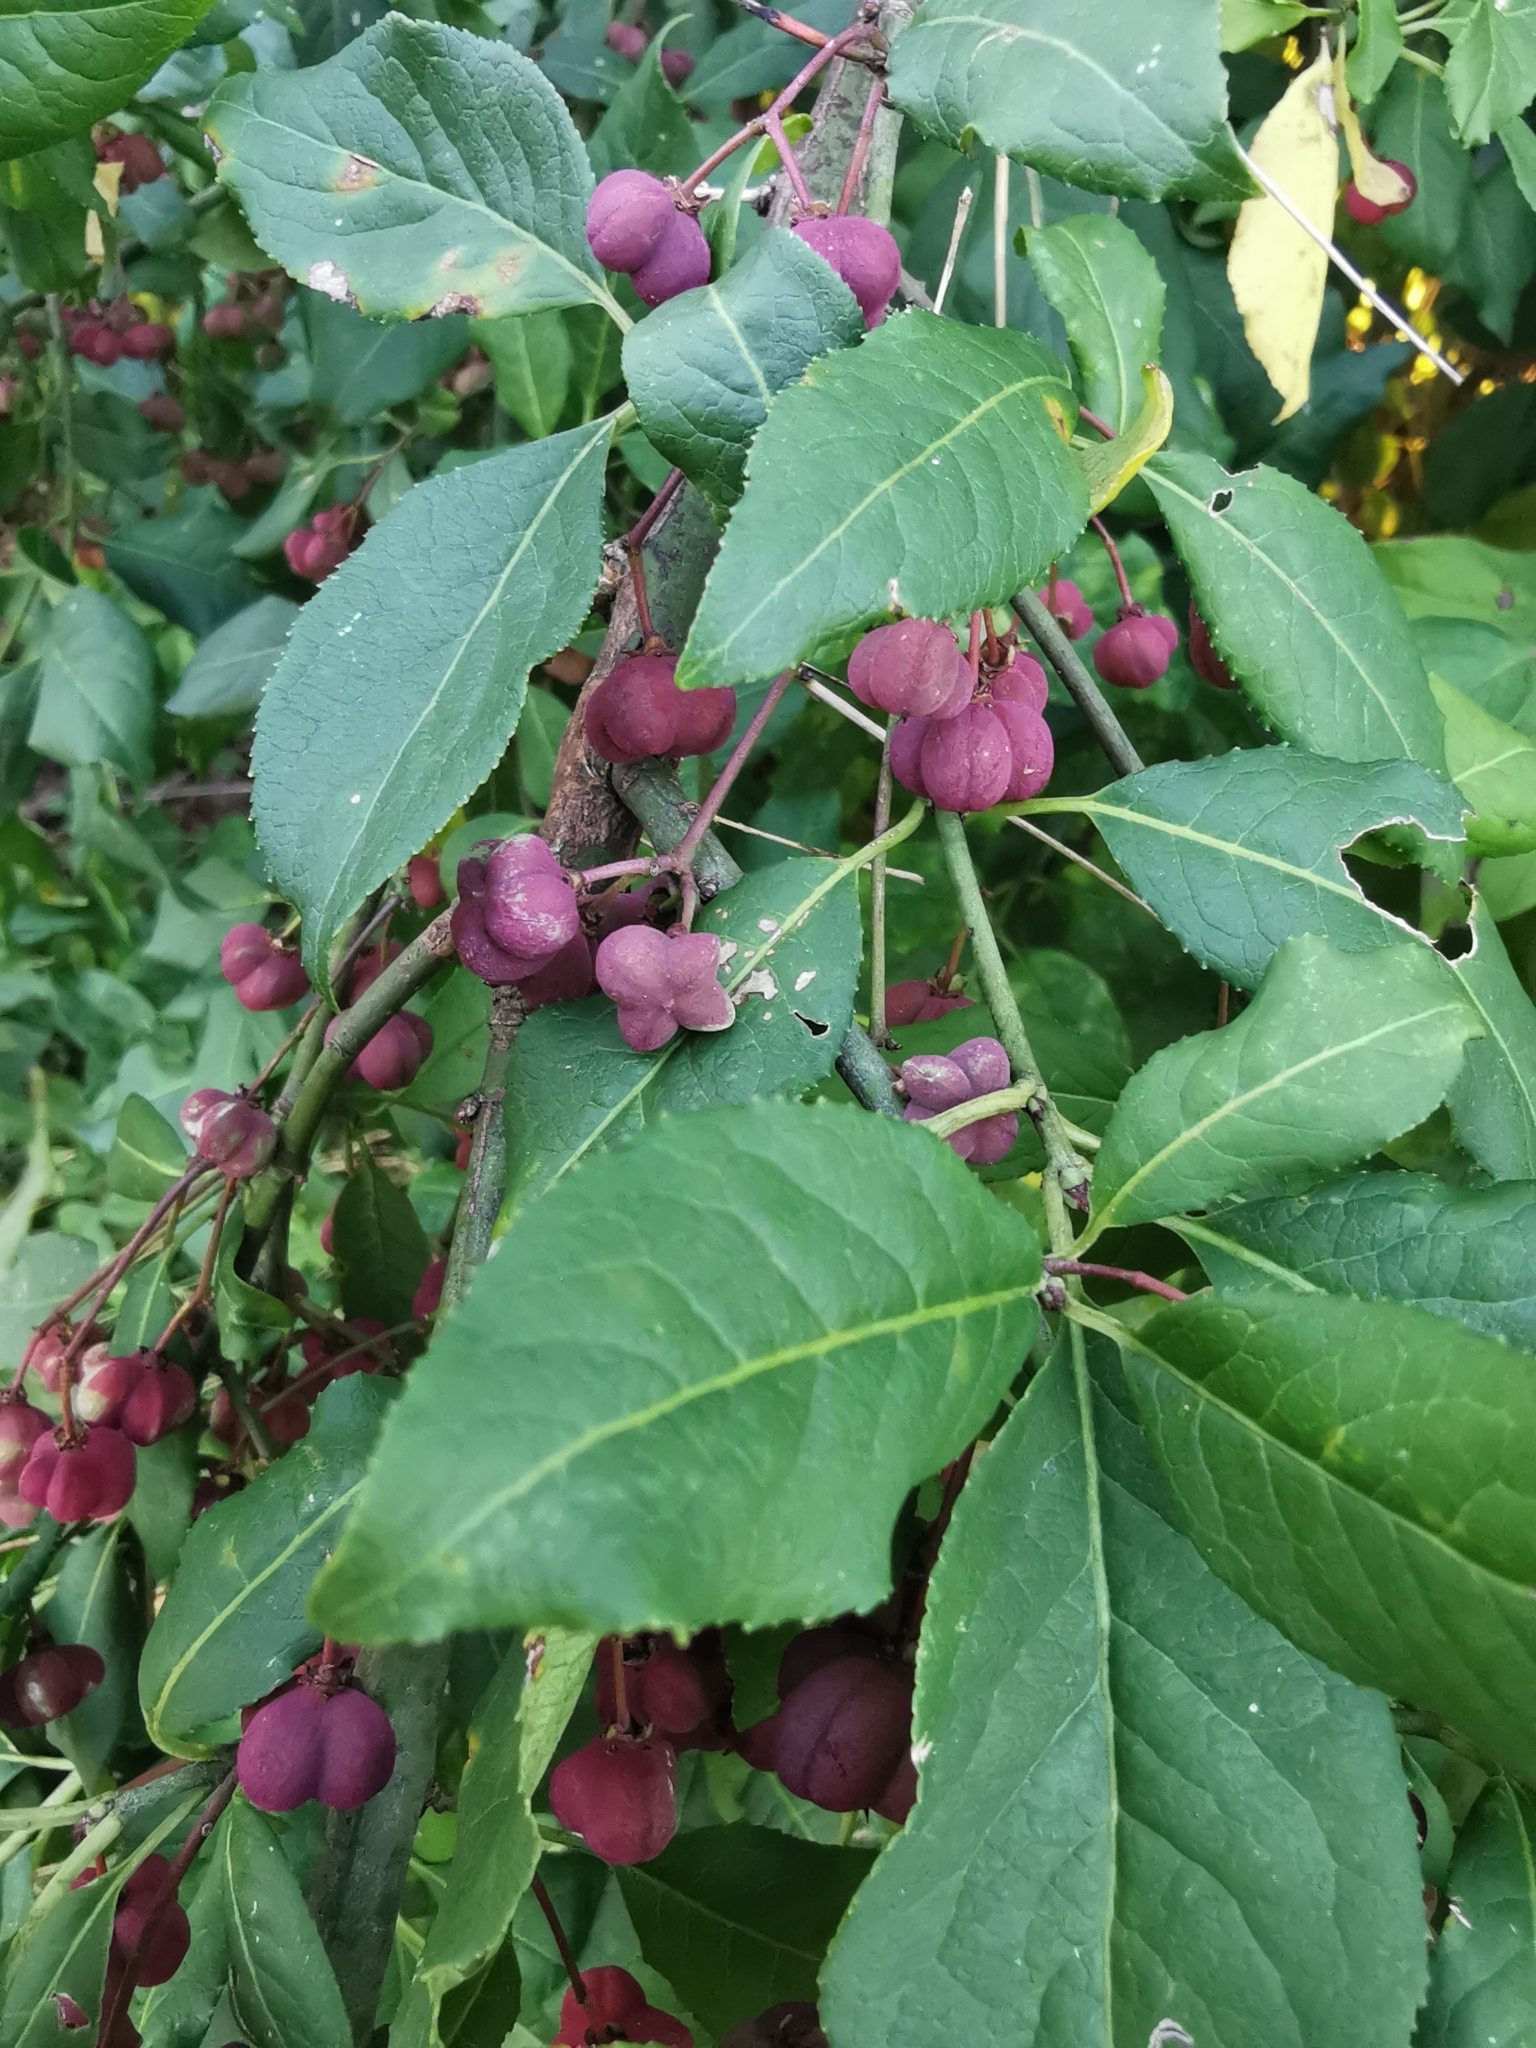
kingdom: Plantae
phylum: Tracheophyta
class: Magnoliopsida
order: Celastrales
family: Celastraceae
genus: Euonymus
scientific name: Euonymus europaeus
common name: Spindle
